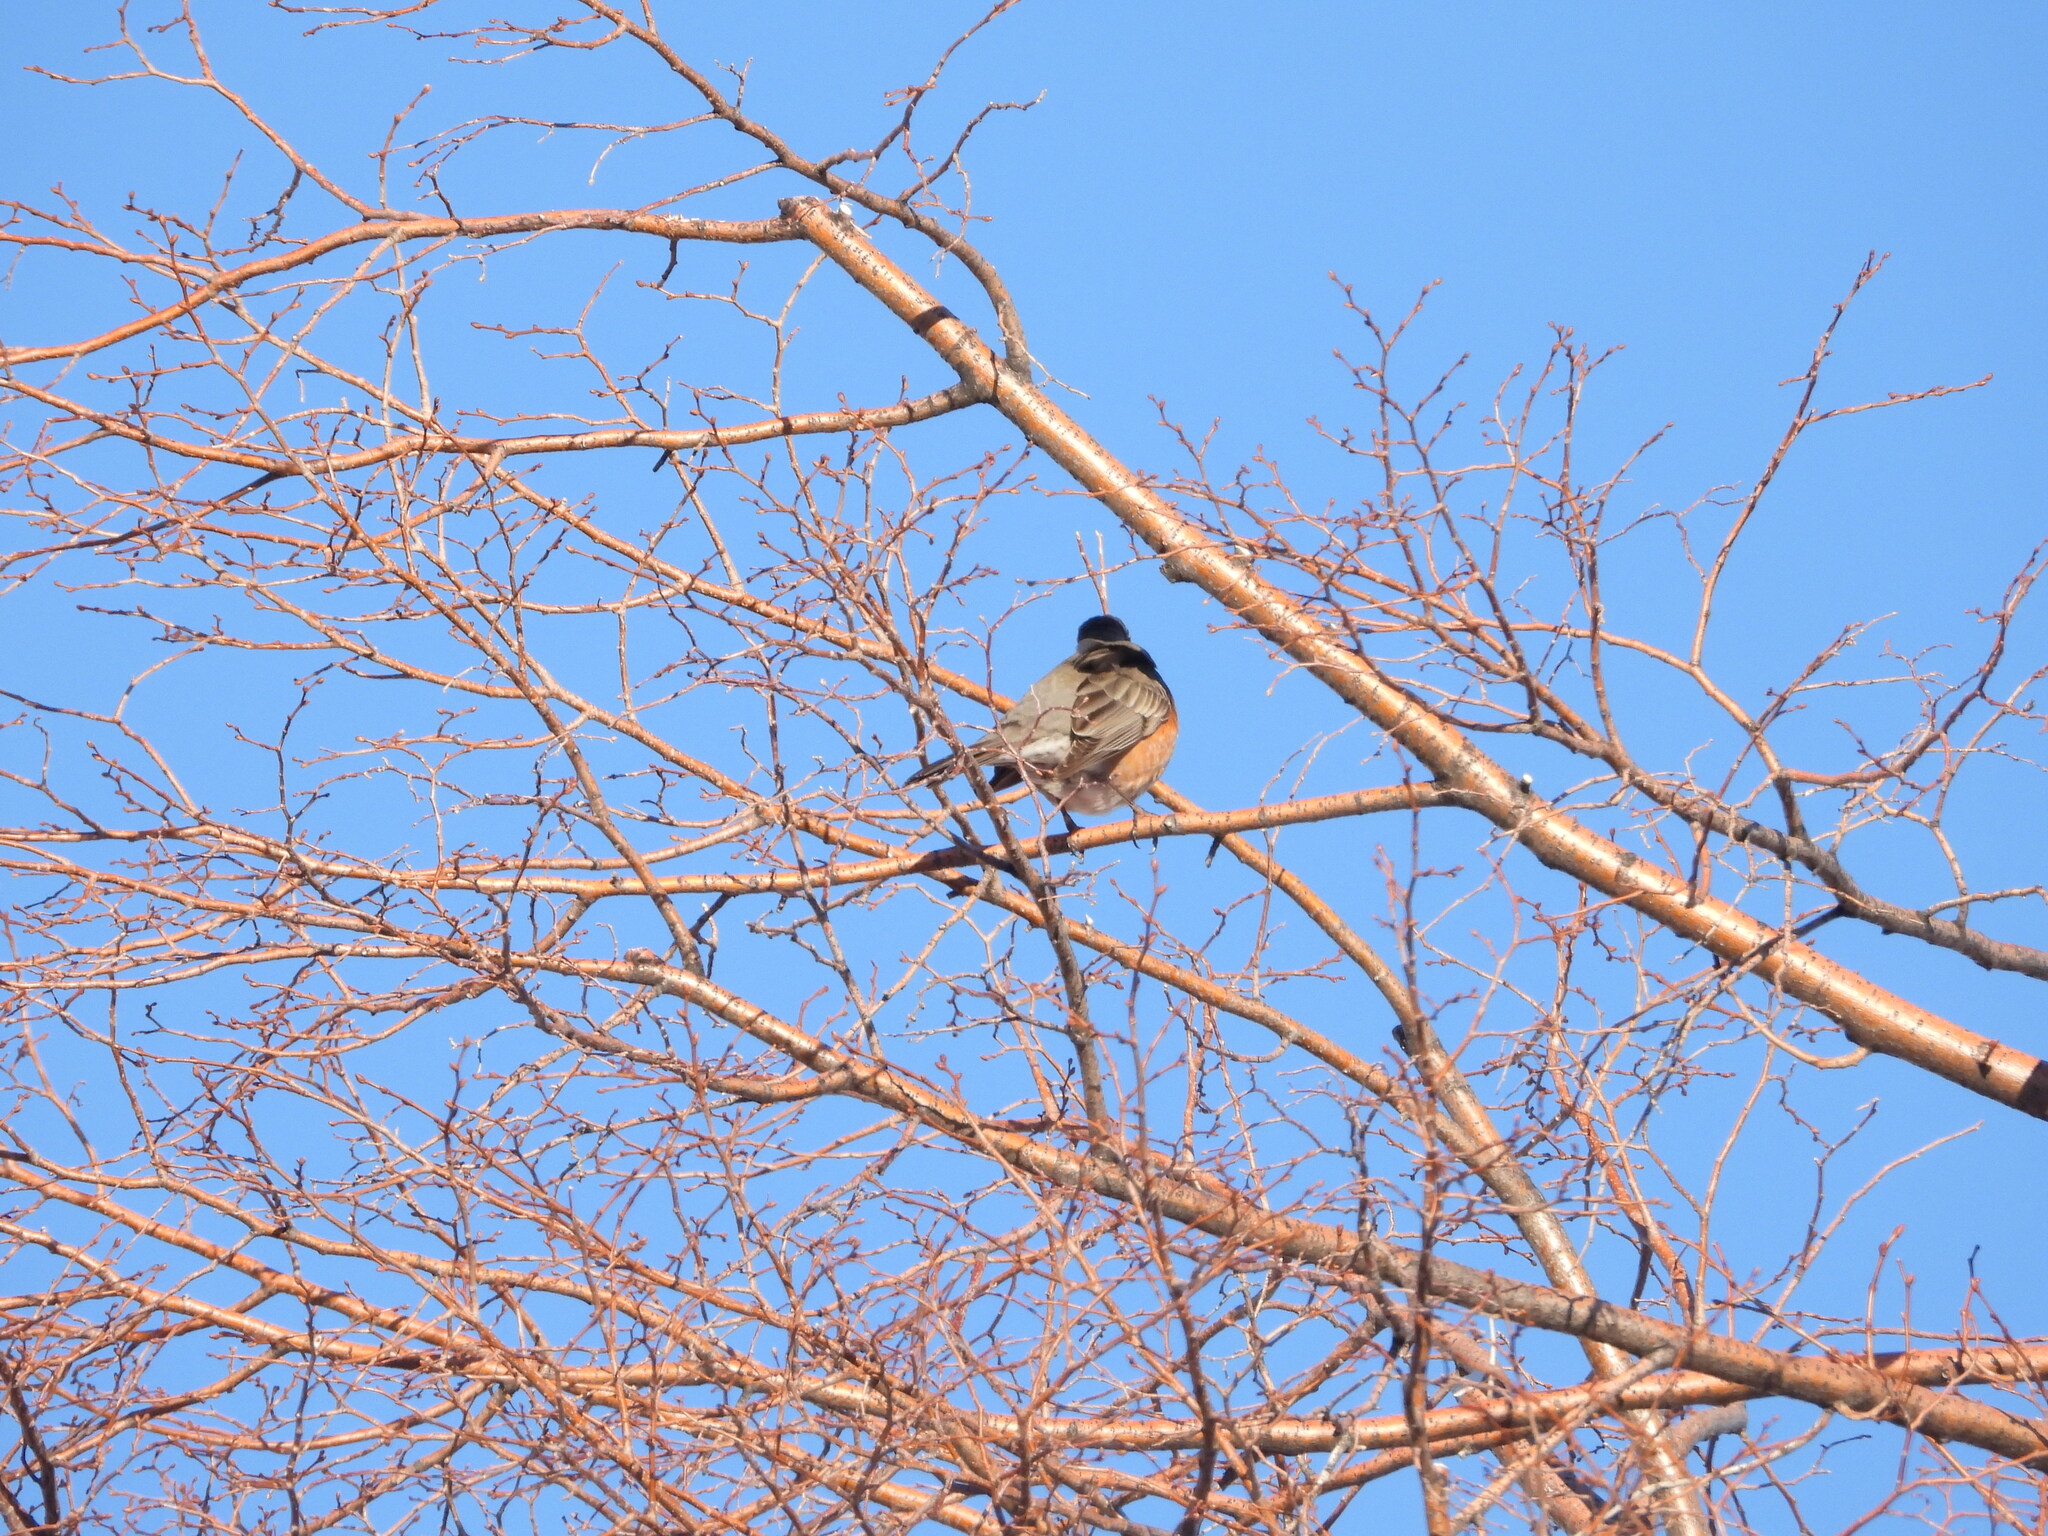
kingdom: Animalia
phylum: Chordata
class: Aves
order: Passeriformes
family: Turdidae
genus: Turdus
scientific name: Turdus migratorius
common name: American robin
